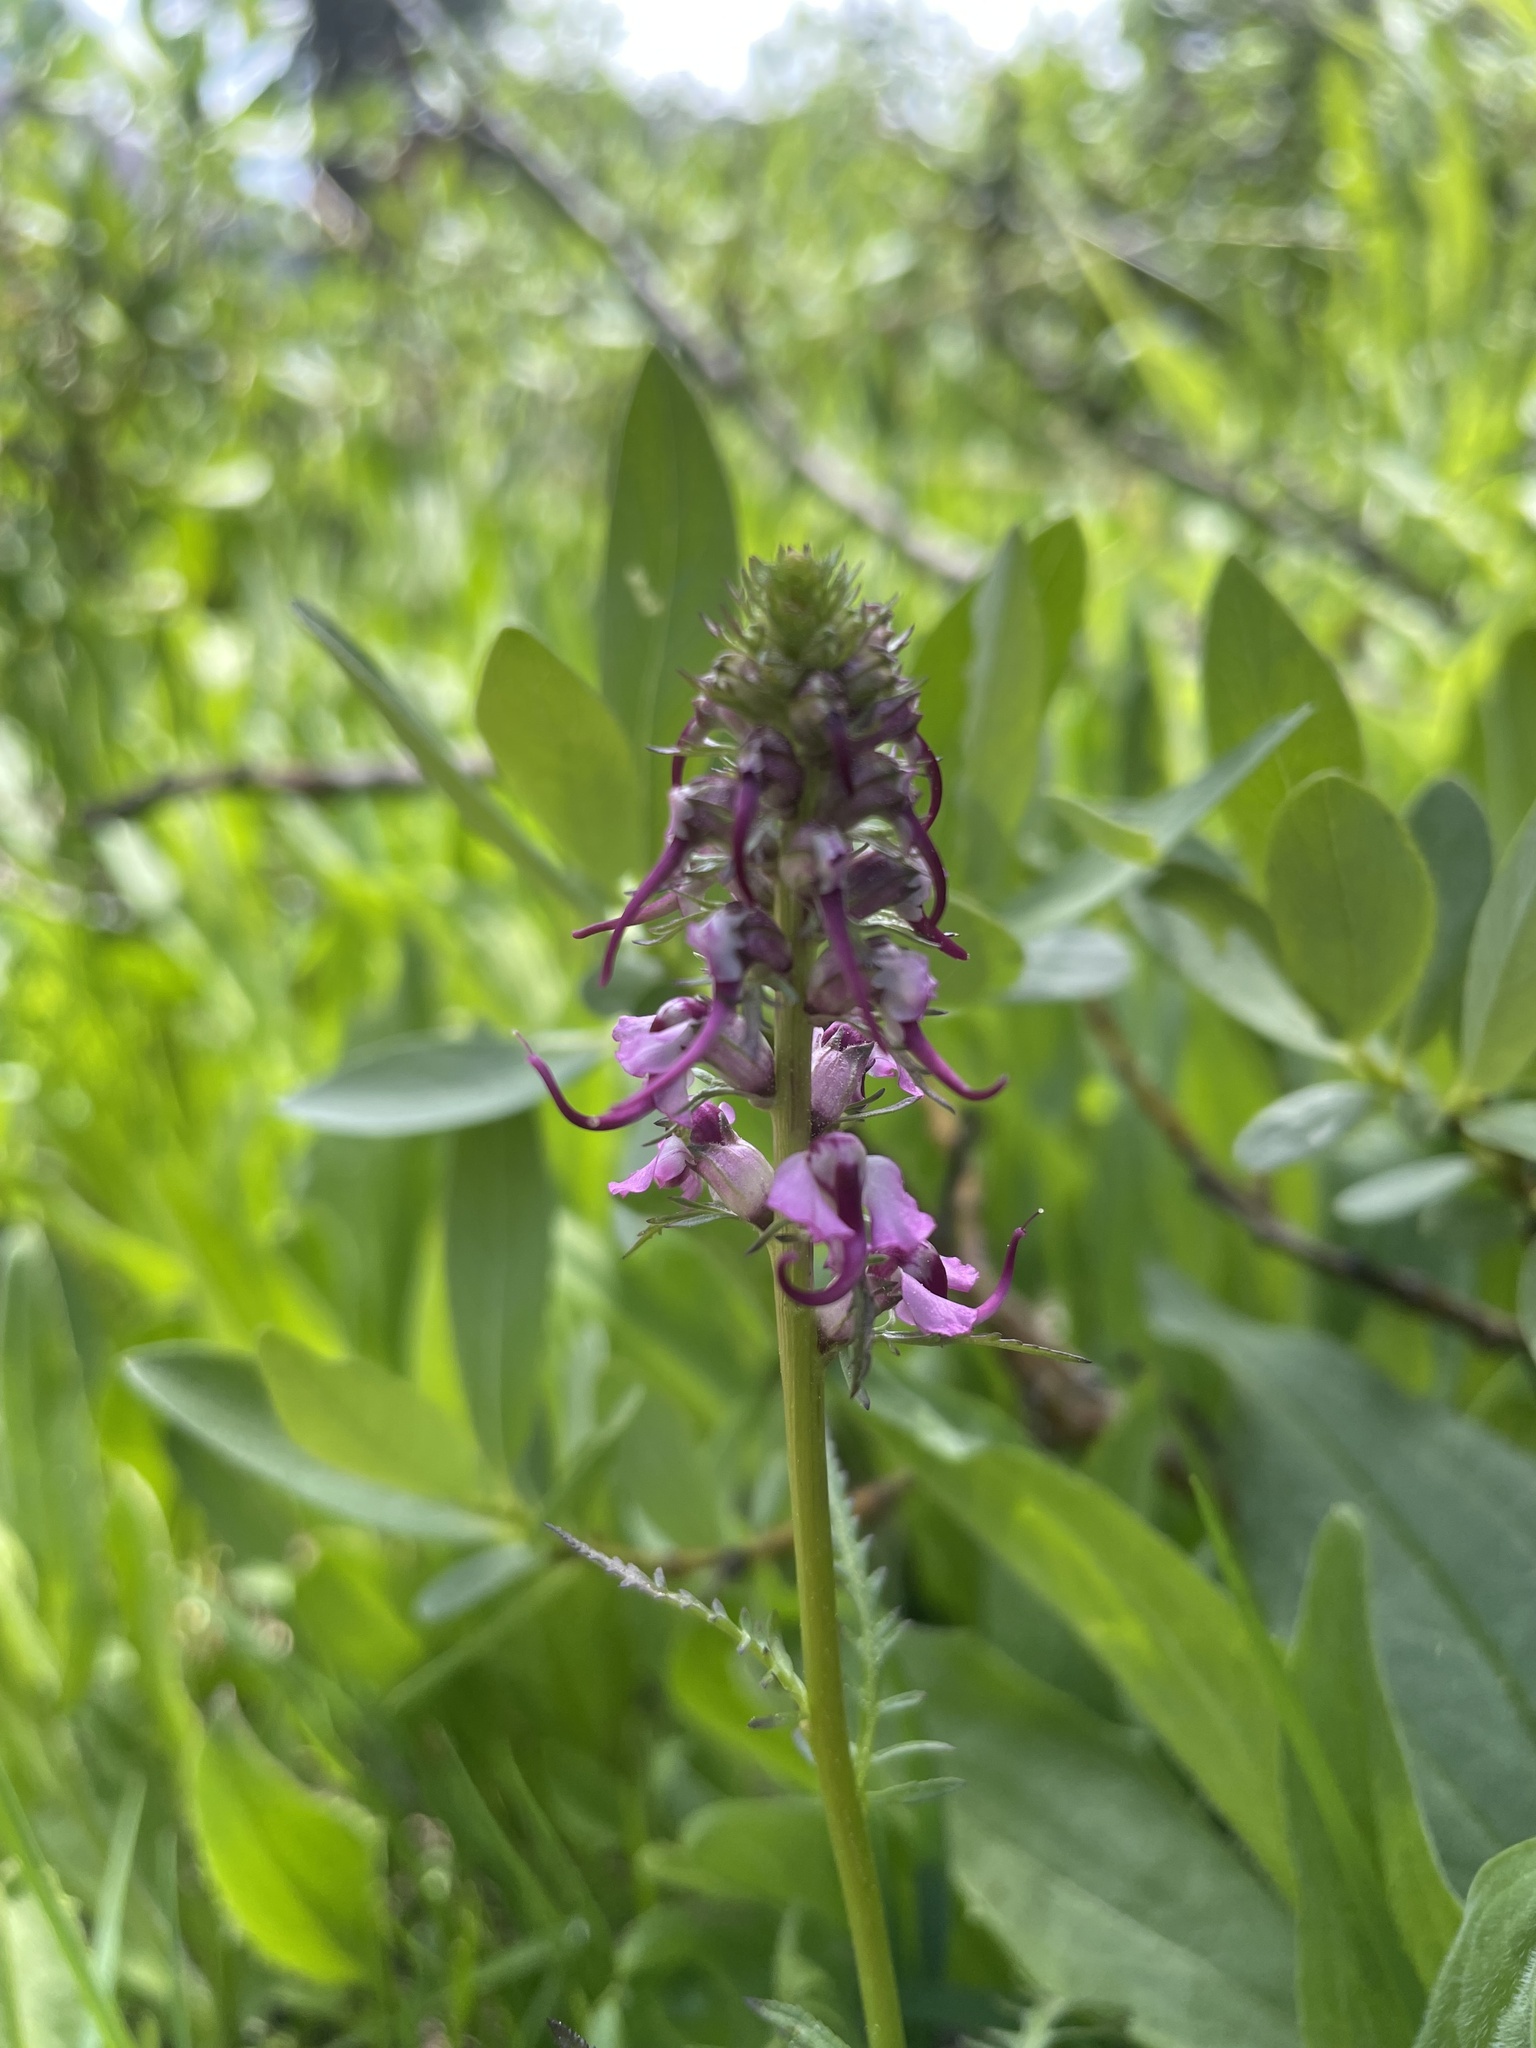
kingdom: Plantae
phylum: Tracheophyta
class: Magnoliopsida
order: Lamiales
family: Orobanchaceae
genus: Pedicularis
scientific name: Pedicularis groenlandica
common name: Elephant's-head
